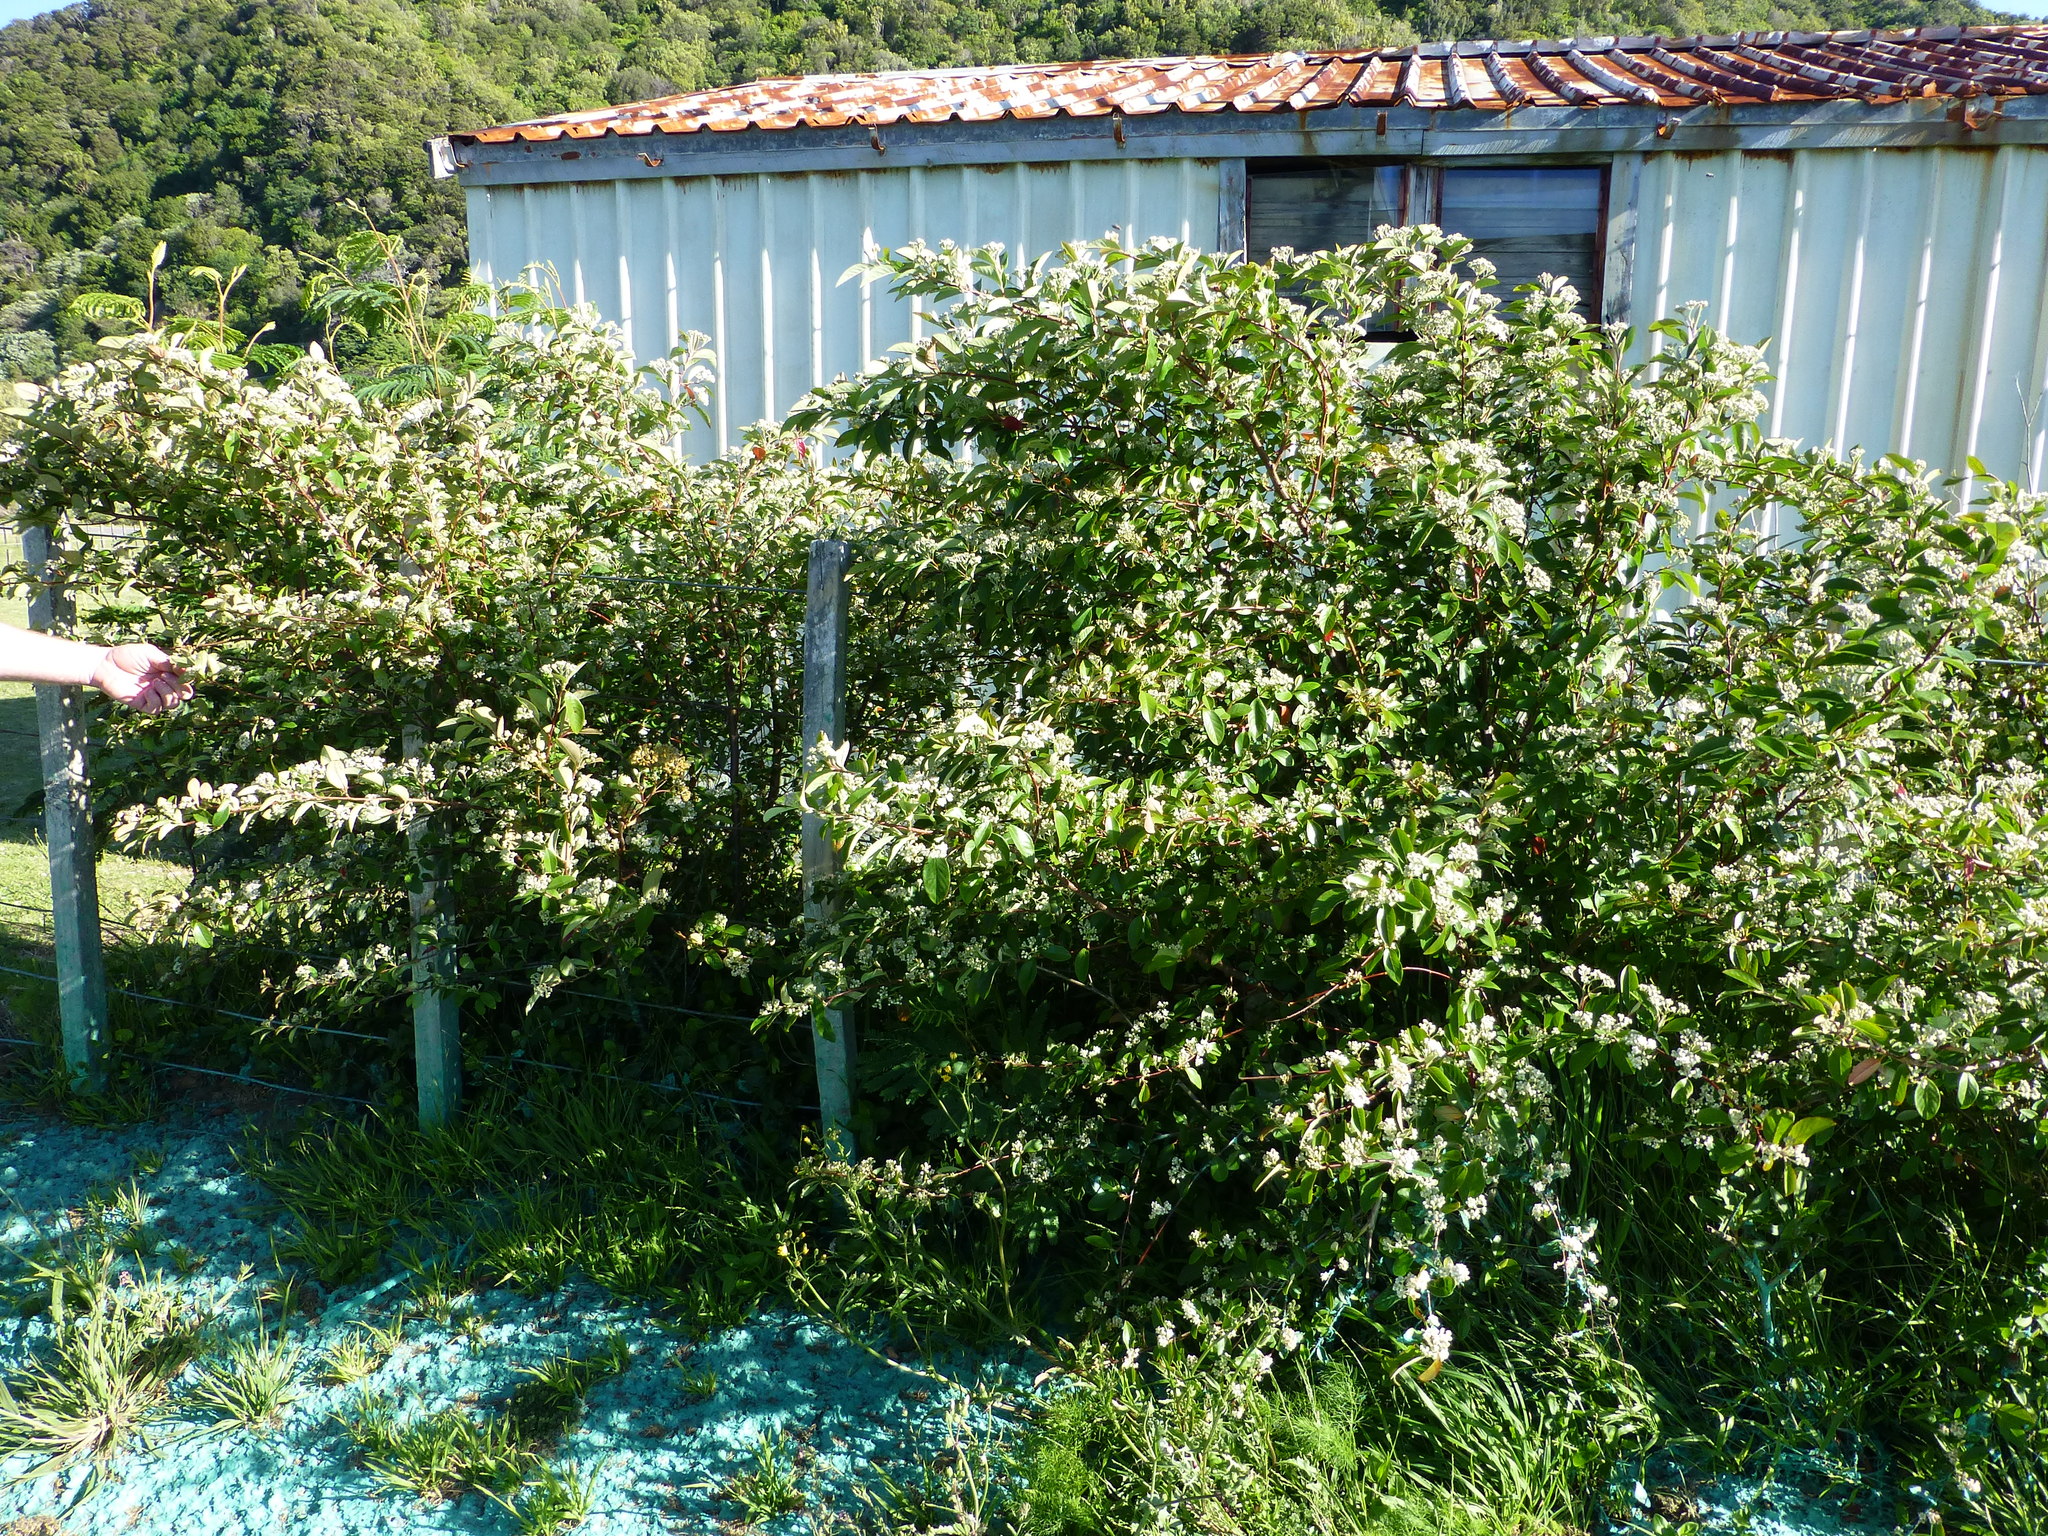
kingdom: Plantae
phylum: Tracheophyta
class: Magnoliopsida
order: Rosales
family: Rosaceae
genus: Cotoneaster
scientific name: Cotoneaster glaucophyllus
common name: Glaucous cotoneaster
